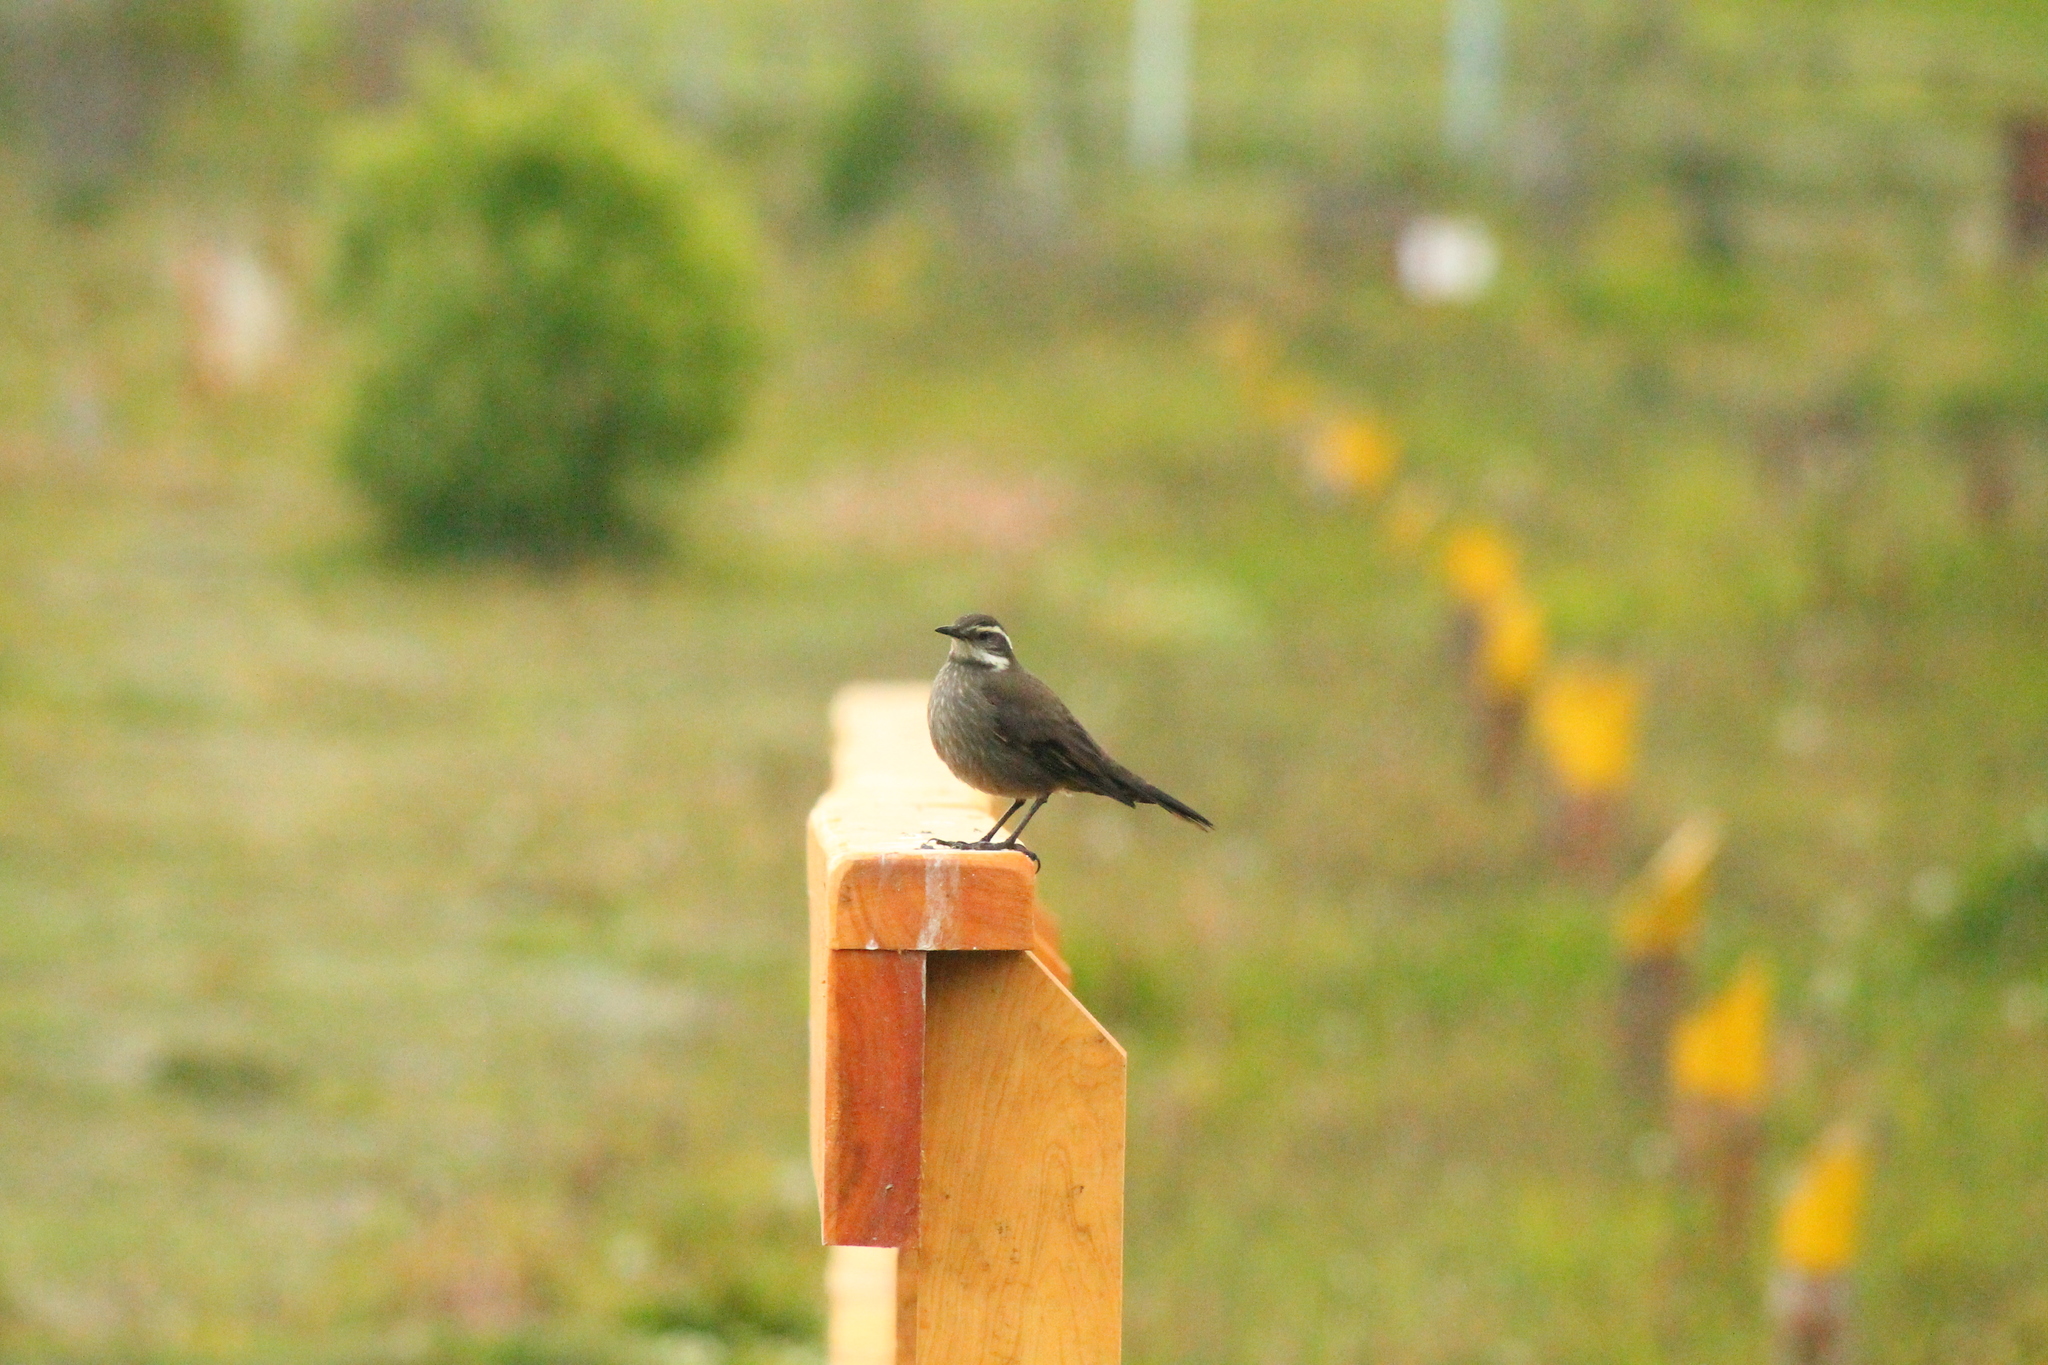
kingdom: Animalia
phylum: Chordata
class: Aves
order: Passeriformes
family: Furnariidae
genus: Cinclodes
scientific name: Cinclodes patagonicus
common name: Dark-bellied cinclodes
